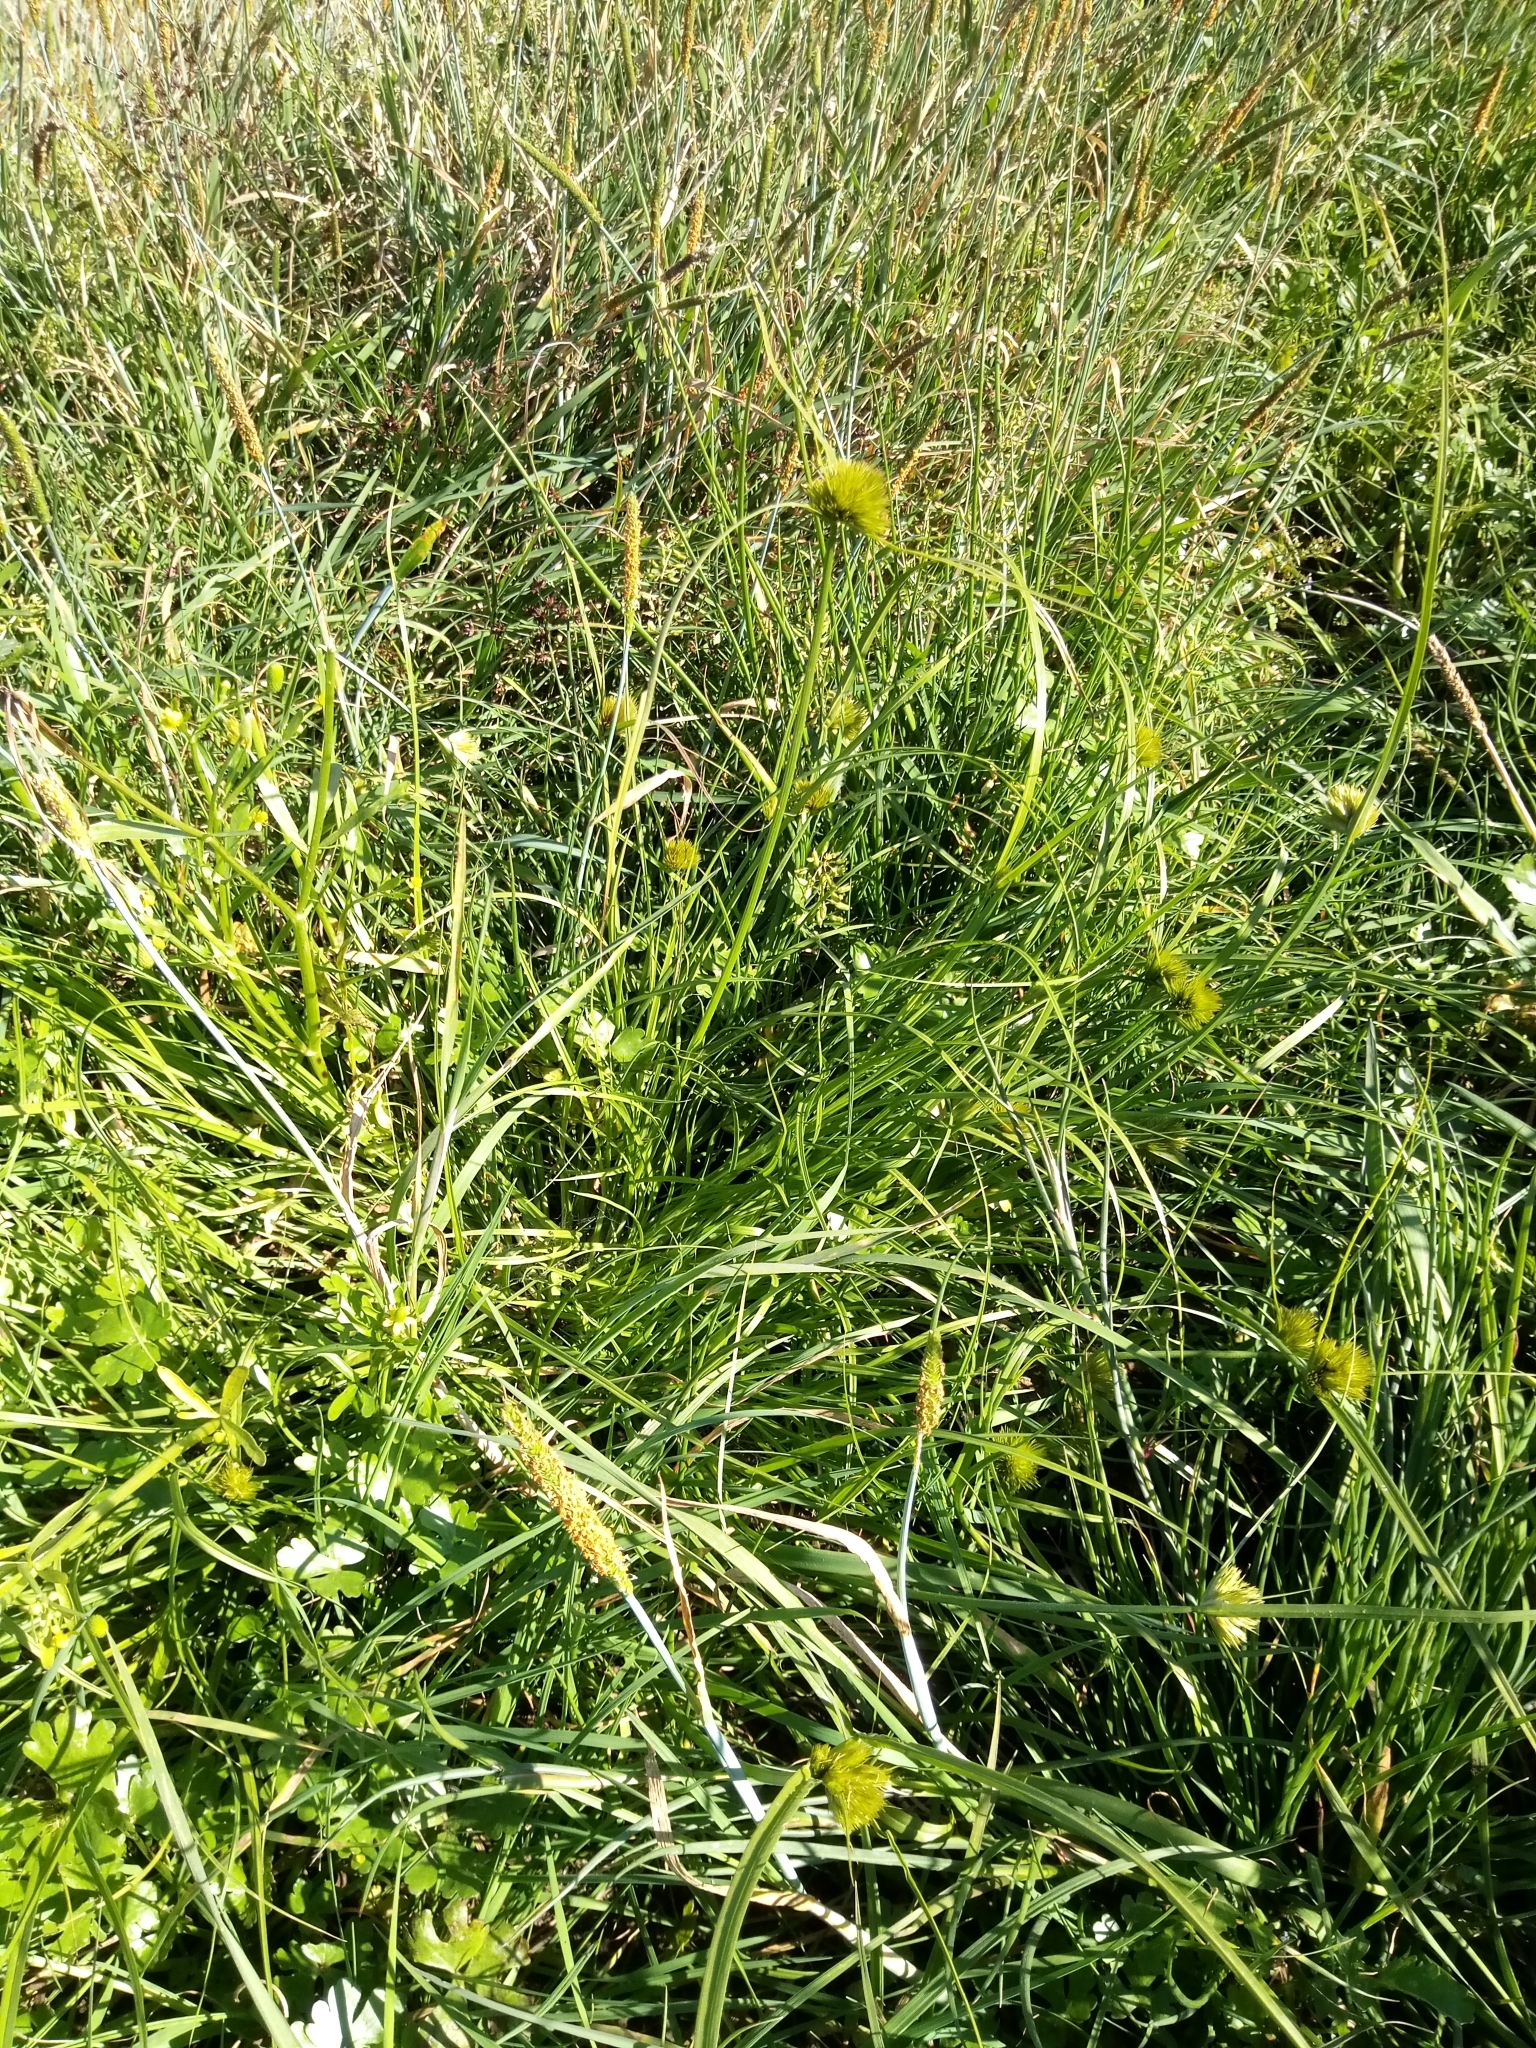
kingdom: Plantae
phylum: Tracheophyta
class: Liliopsida
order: Poales
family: Cyperaceae
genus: Carex
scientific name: Carex bohemica
